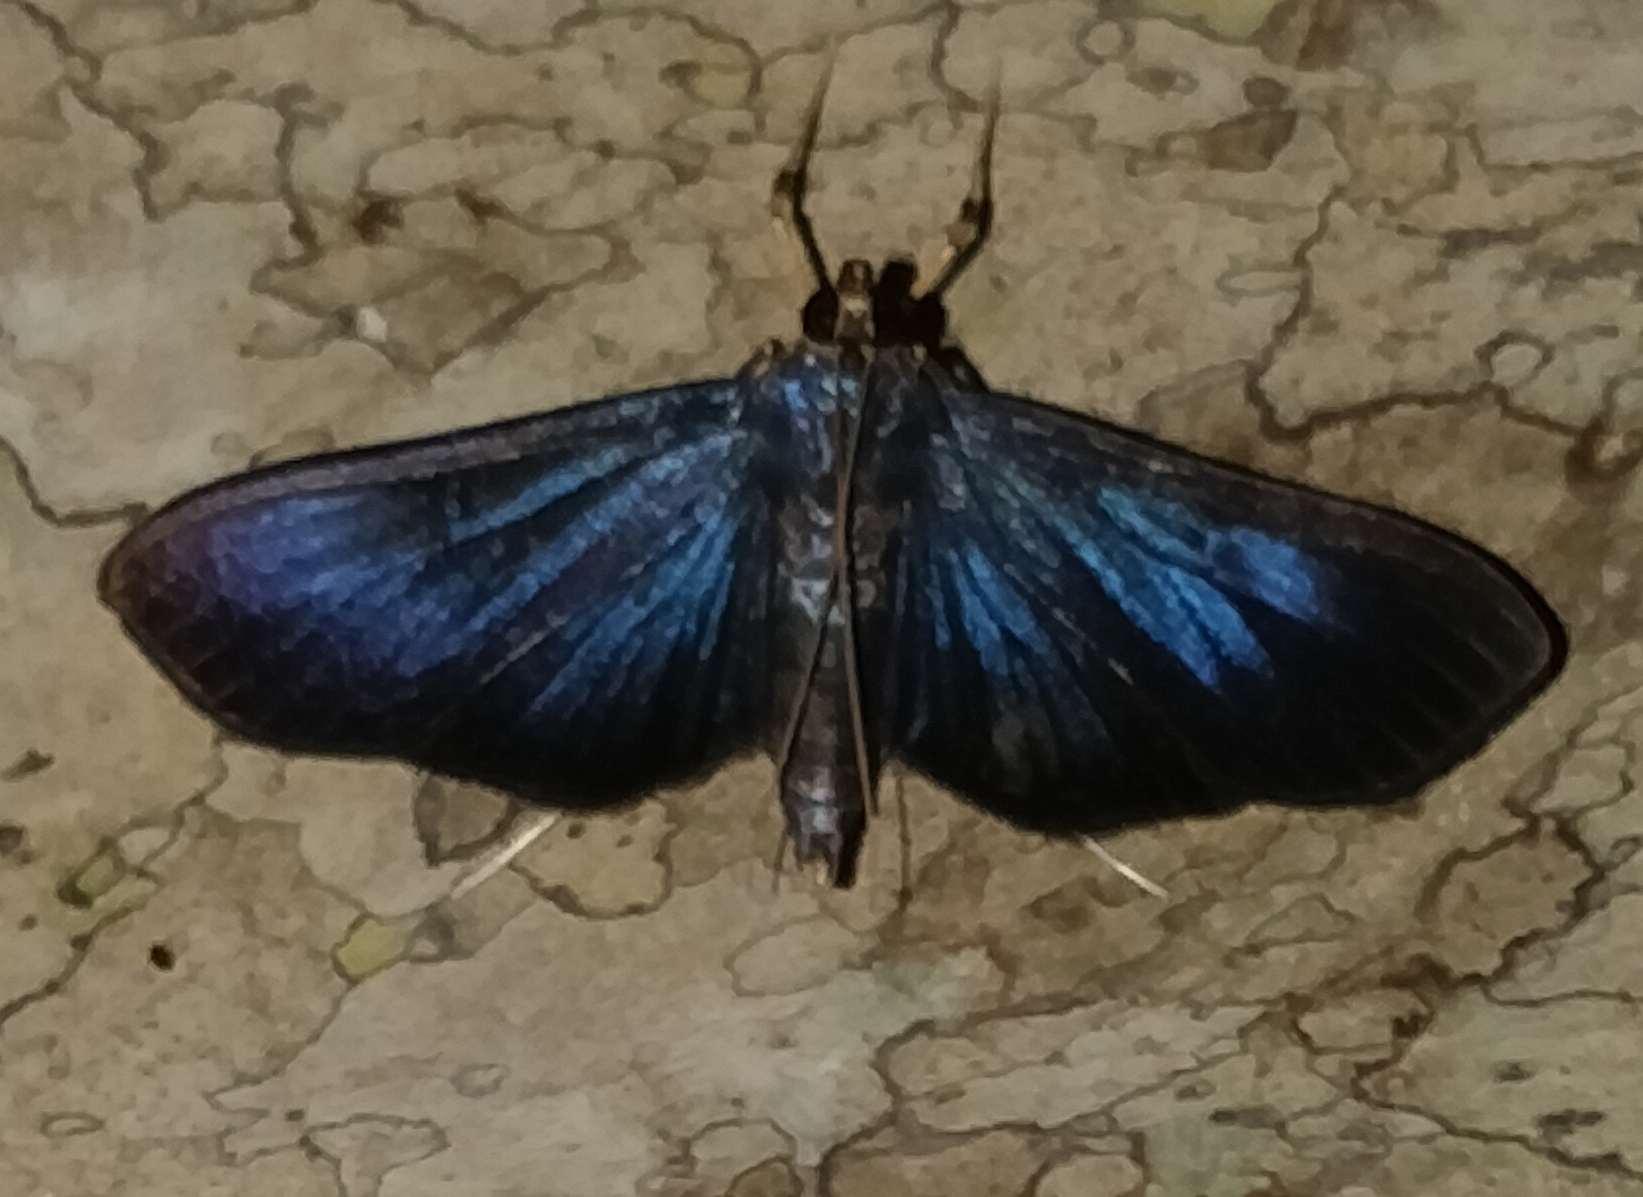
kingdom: Animalia
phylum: Arthropoda
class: Insecta
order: Lepidoptera
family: Crambidae
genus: Phostria
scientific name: Phostria metalobalis
